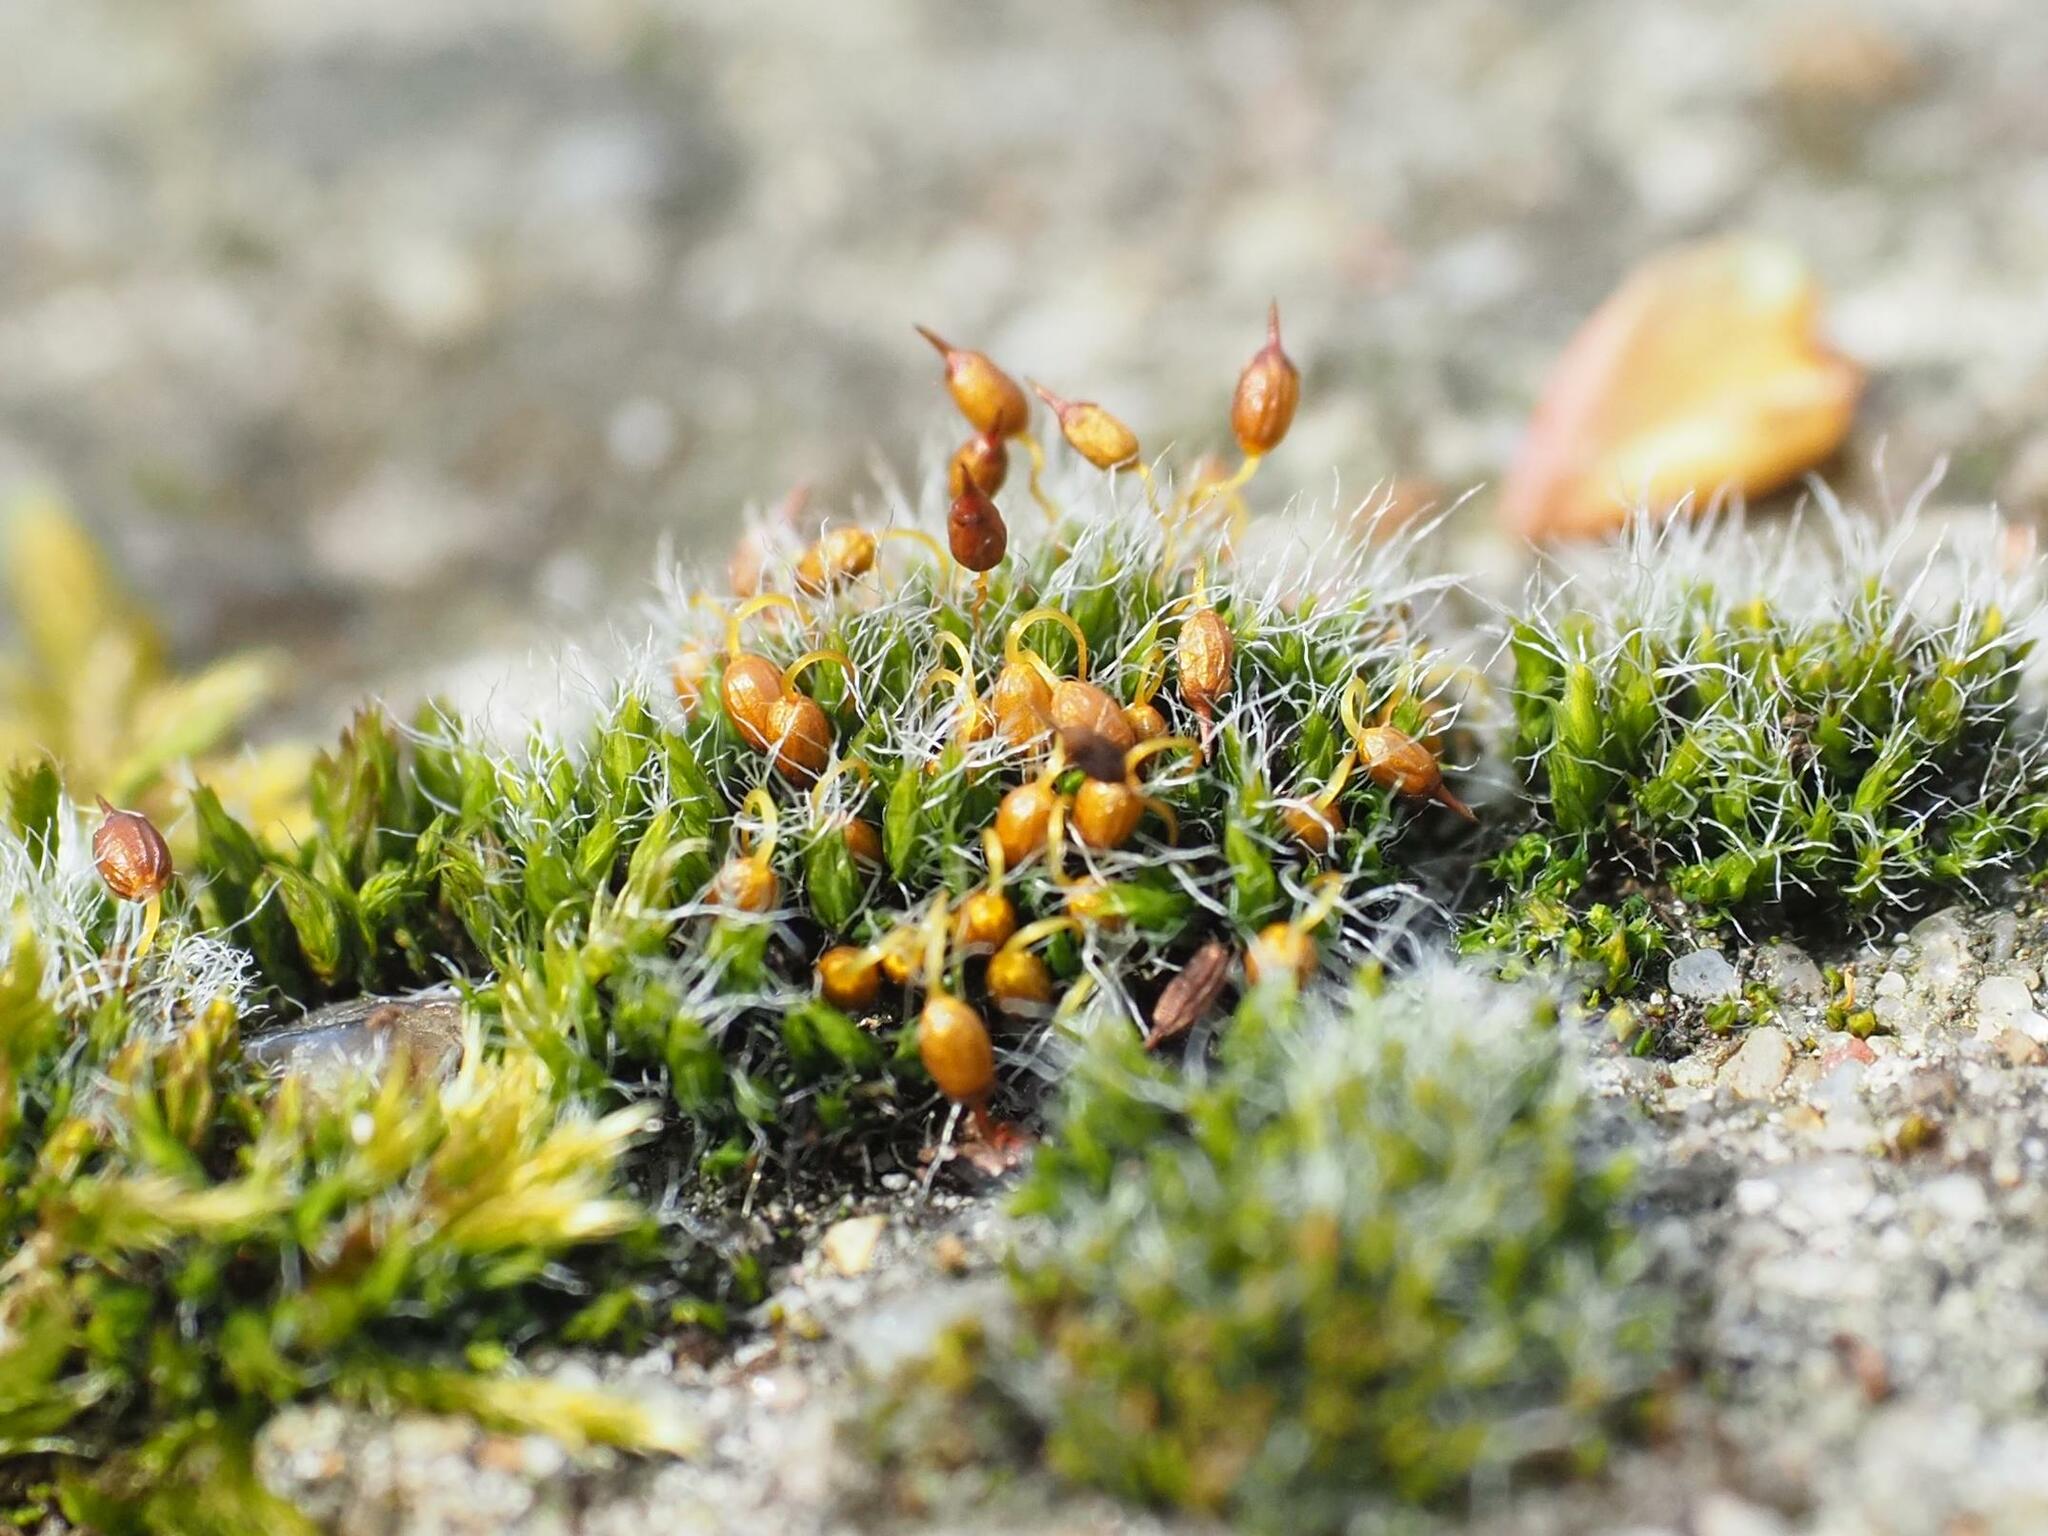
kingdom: Plantae
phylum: Bryophyta
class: Bryopsida
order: Grimmiales
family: Grimmiaceae
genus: Grimmia
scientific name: Grimmia pulvinata
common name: Grey-cushioned grimmia
